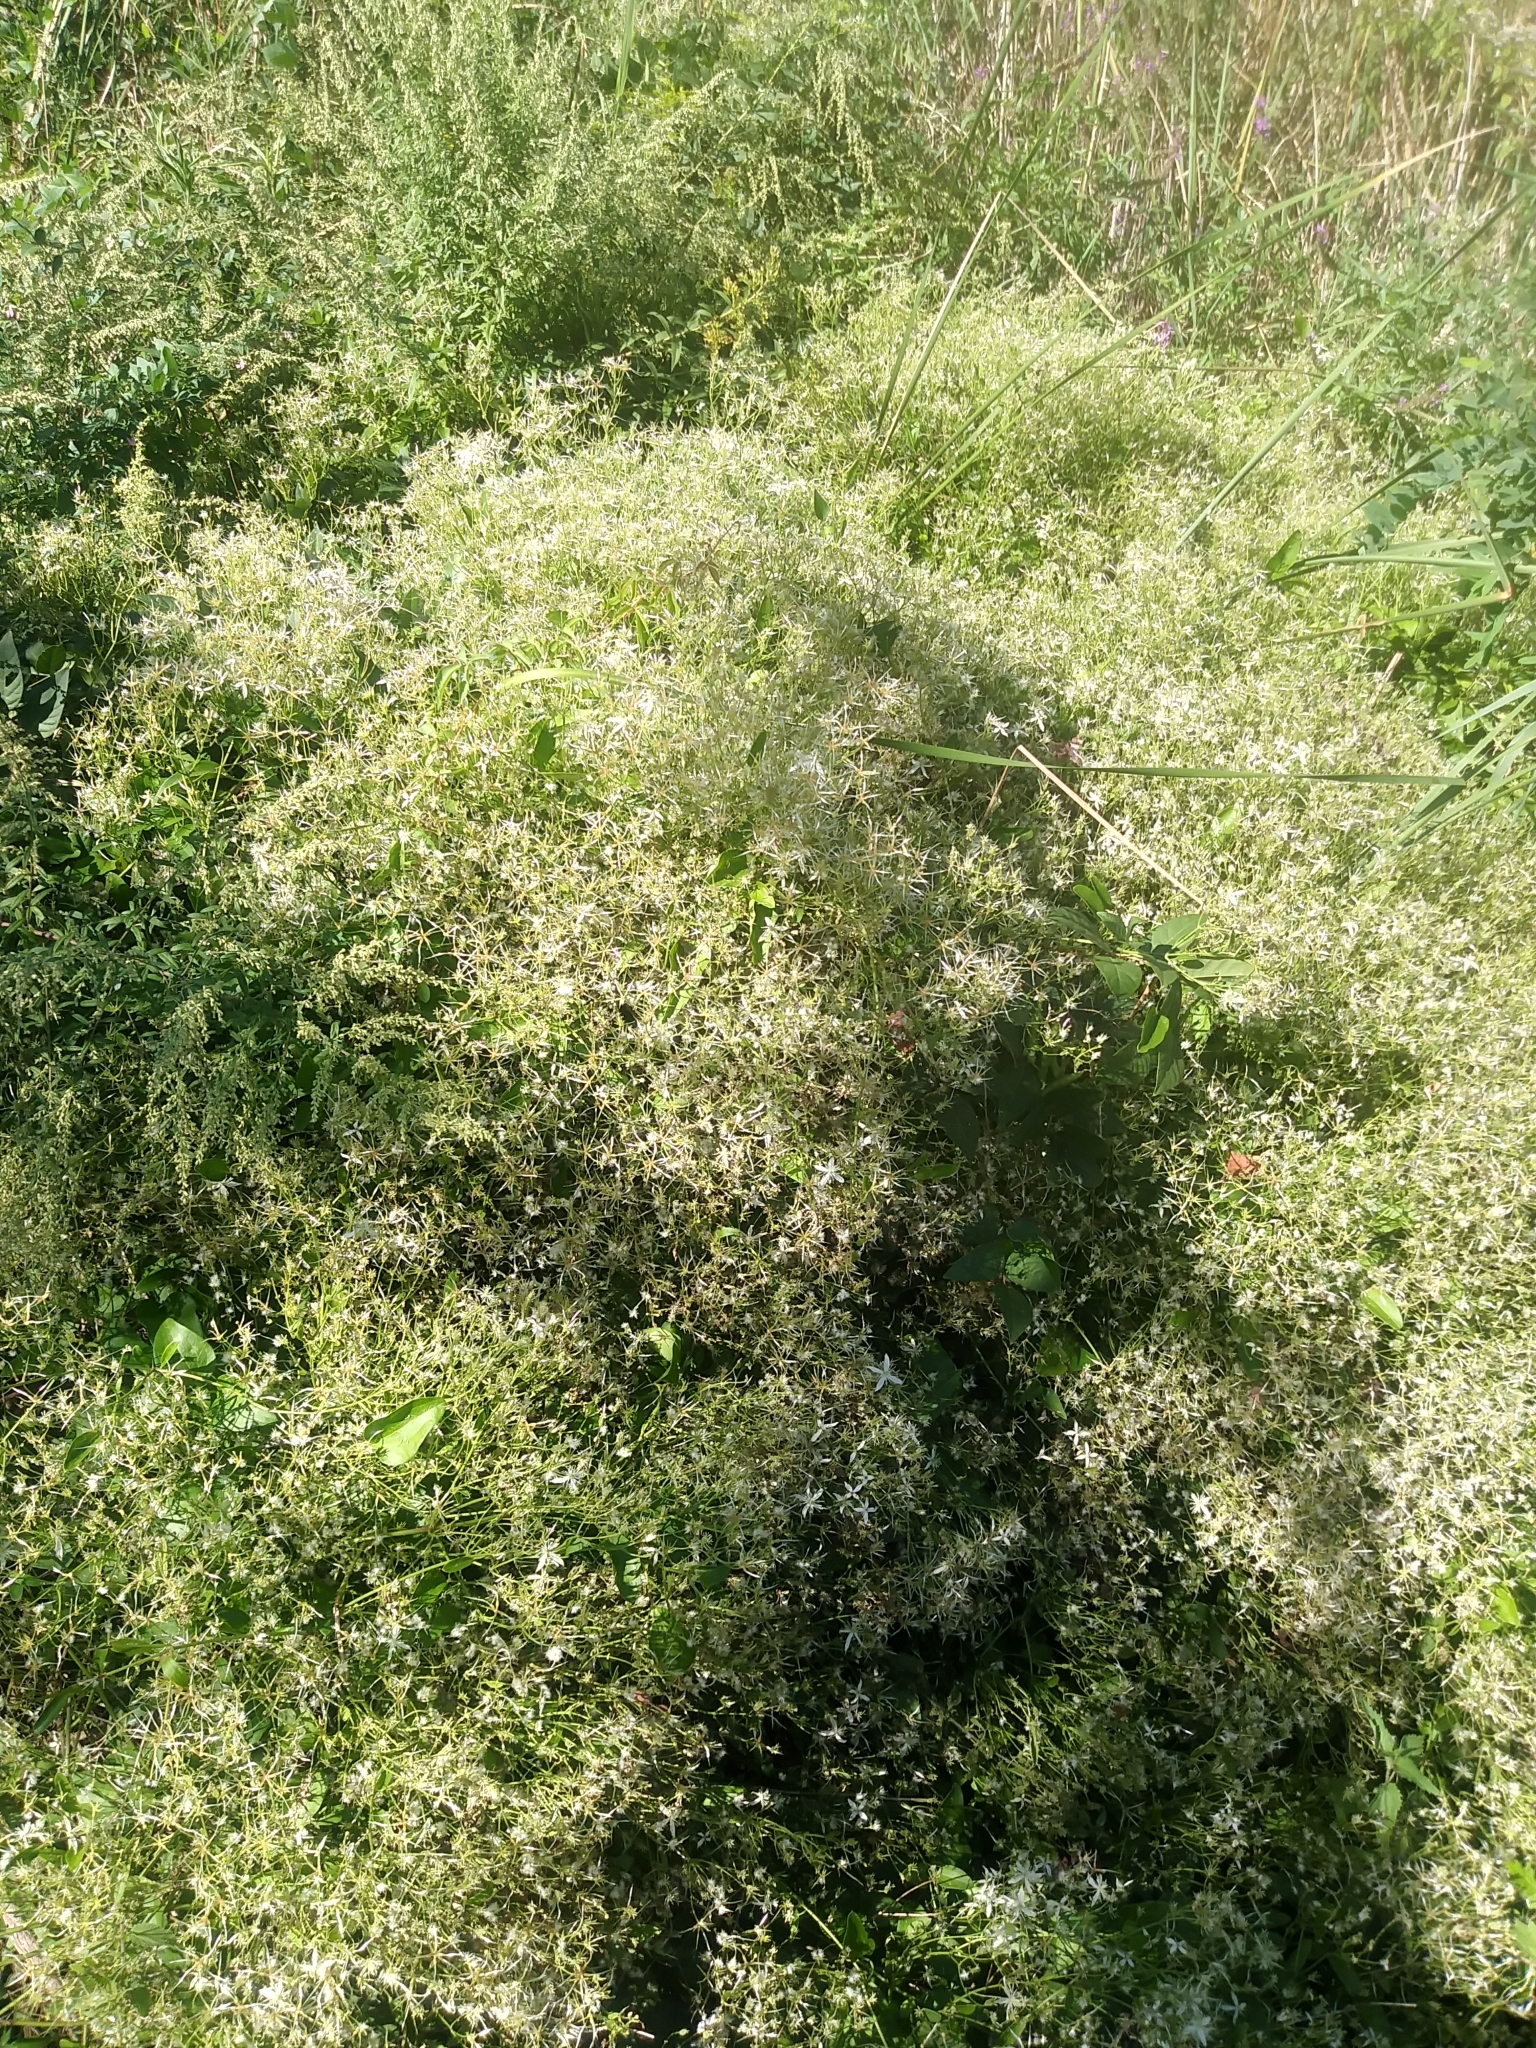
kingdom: Plantae
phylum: Tracheophyta
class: Magnoliopsida
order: Ranunculales
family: Ranunculaceae
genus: Clematis
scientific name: Clematis terniflora
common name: Sweet autumn clematis
